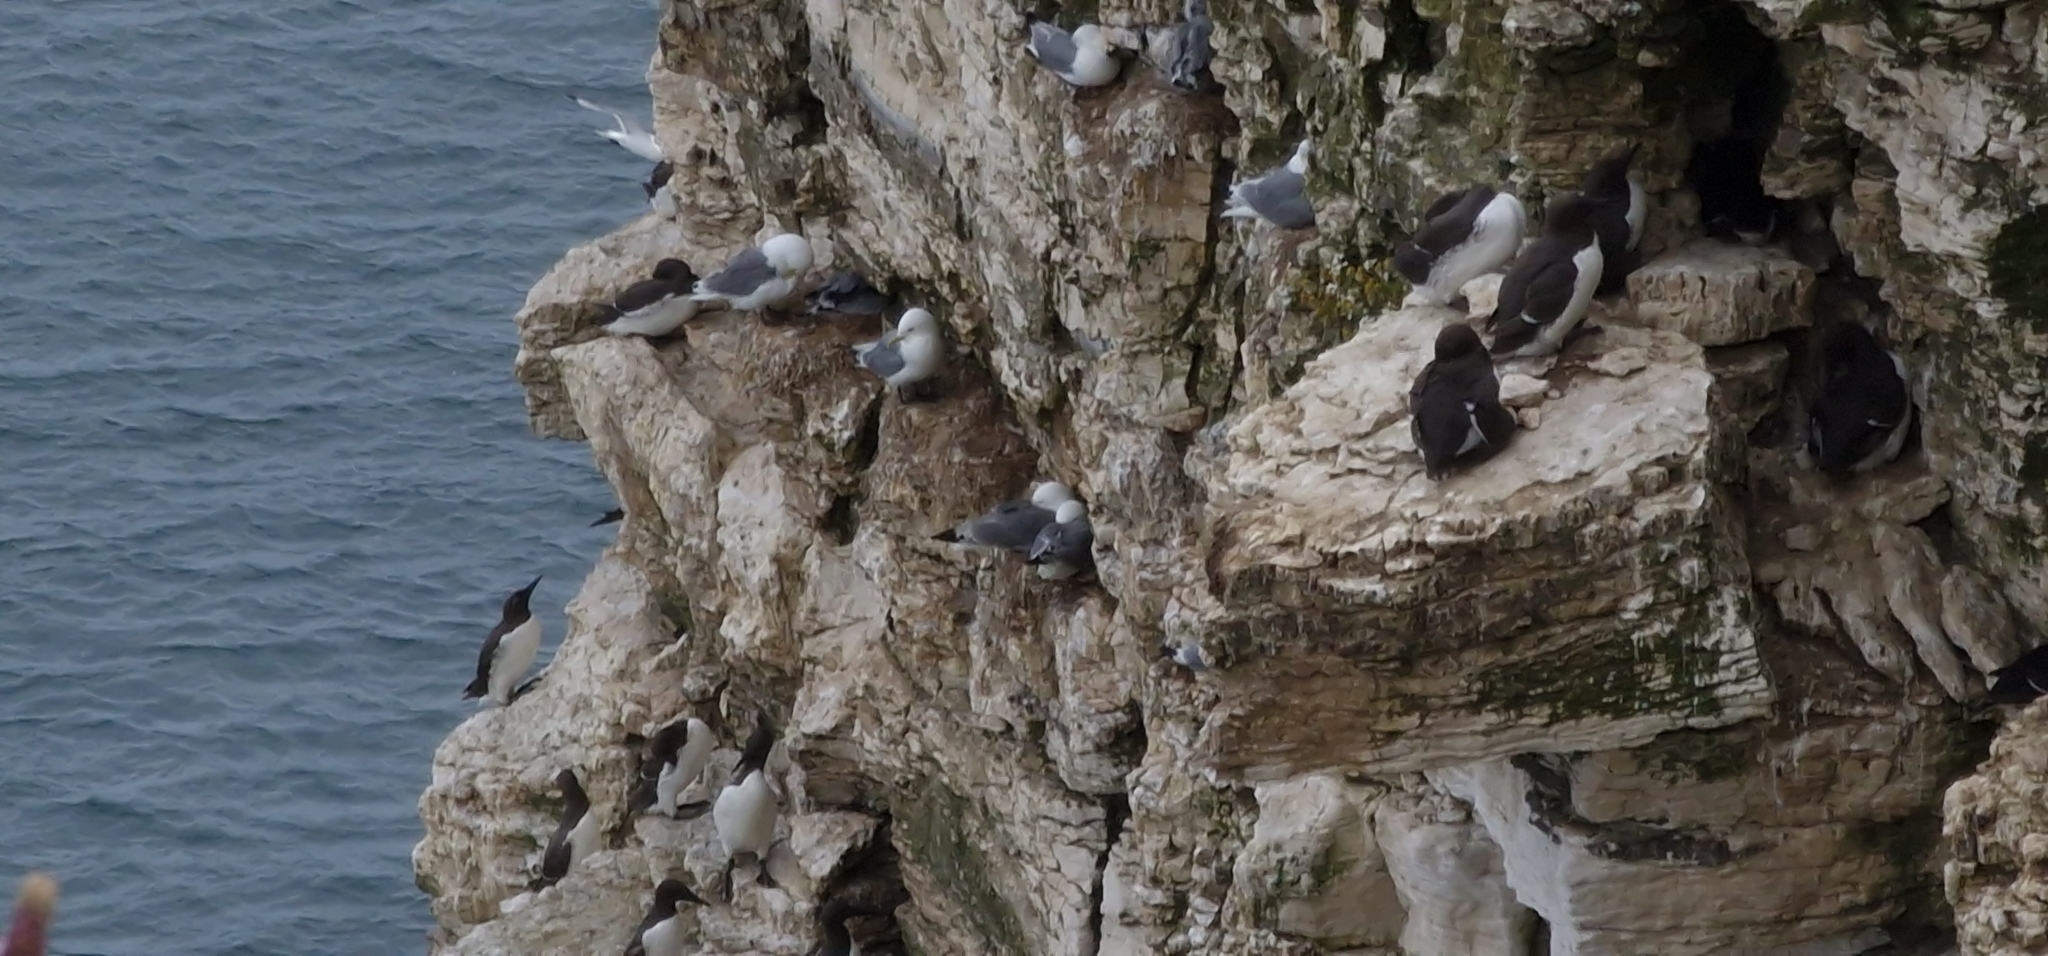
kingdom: Animalia
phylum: Chordata
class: Aves
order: Charadriiformes
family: Laridae
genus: Rissa
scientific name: Rissa tridactyla
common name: Black-legged kittiwake
